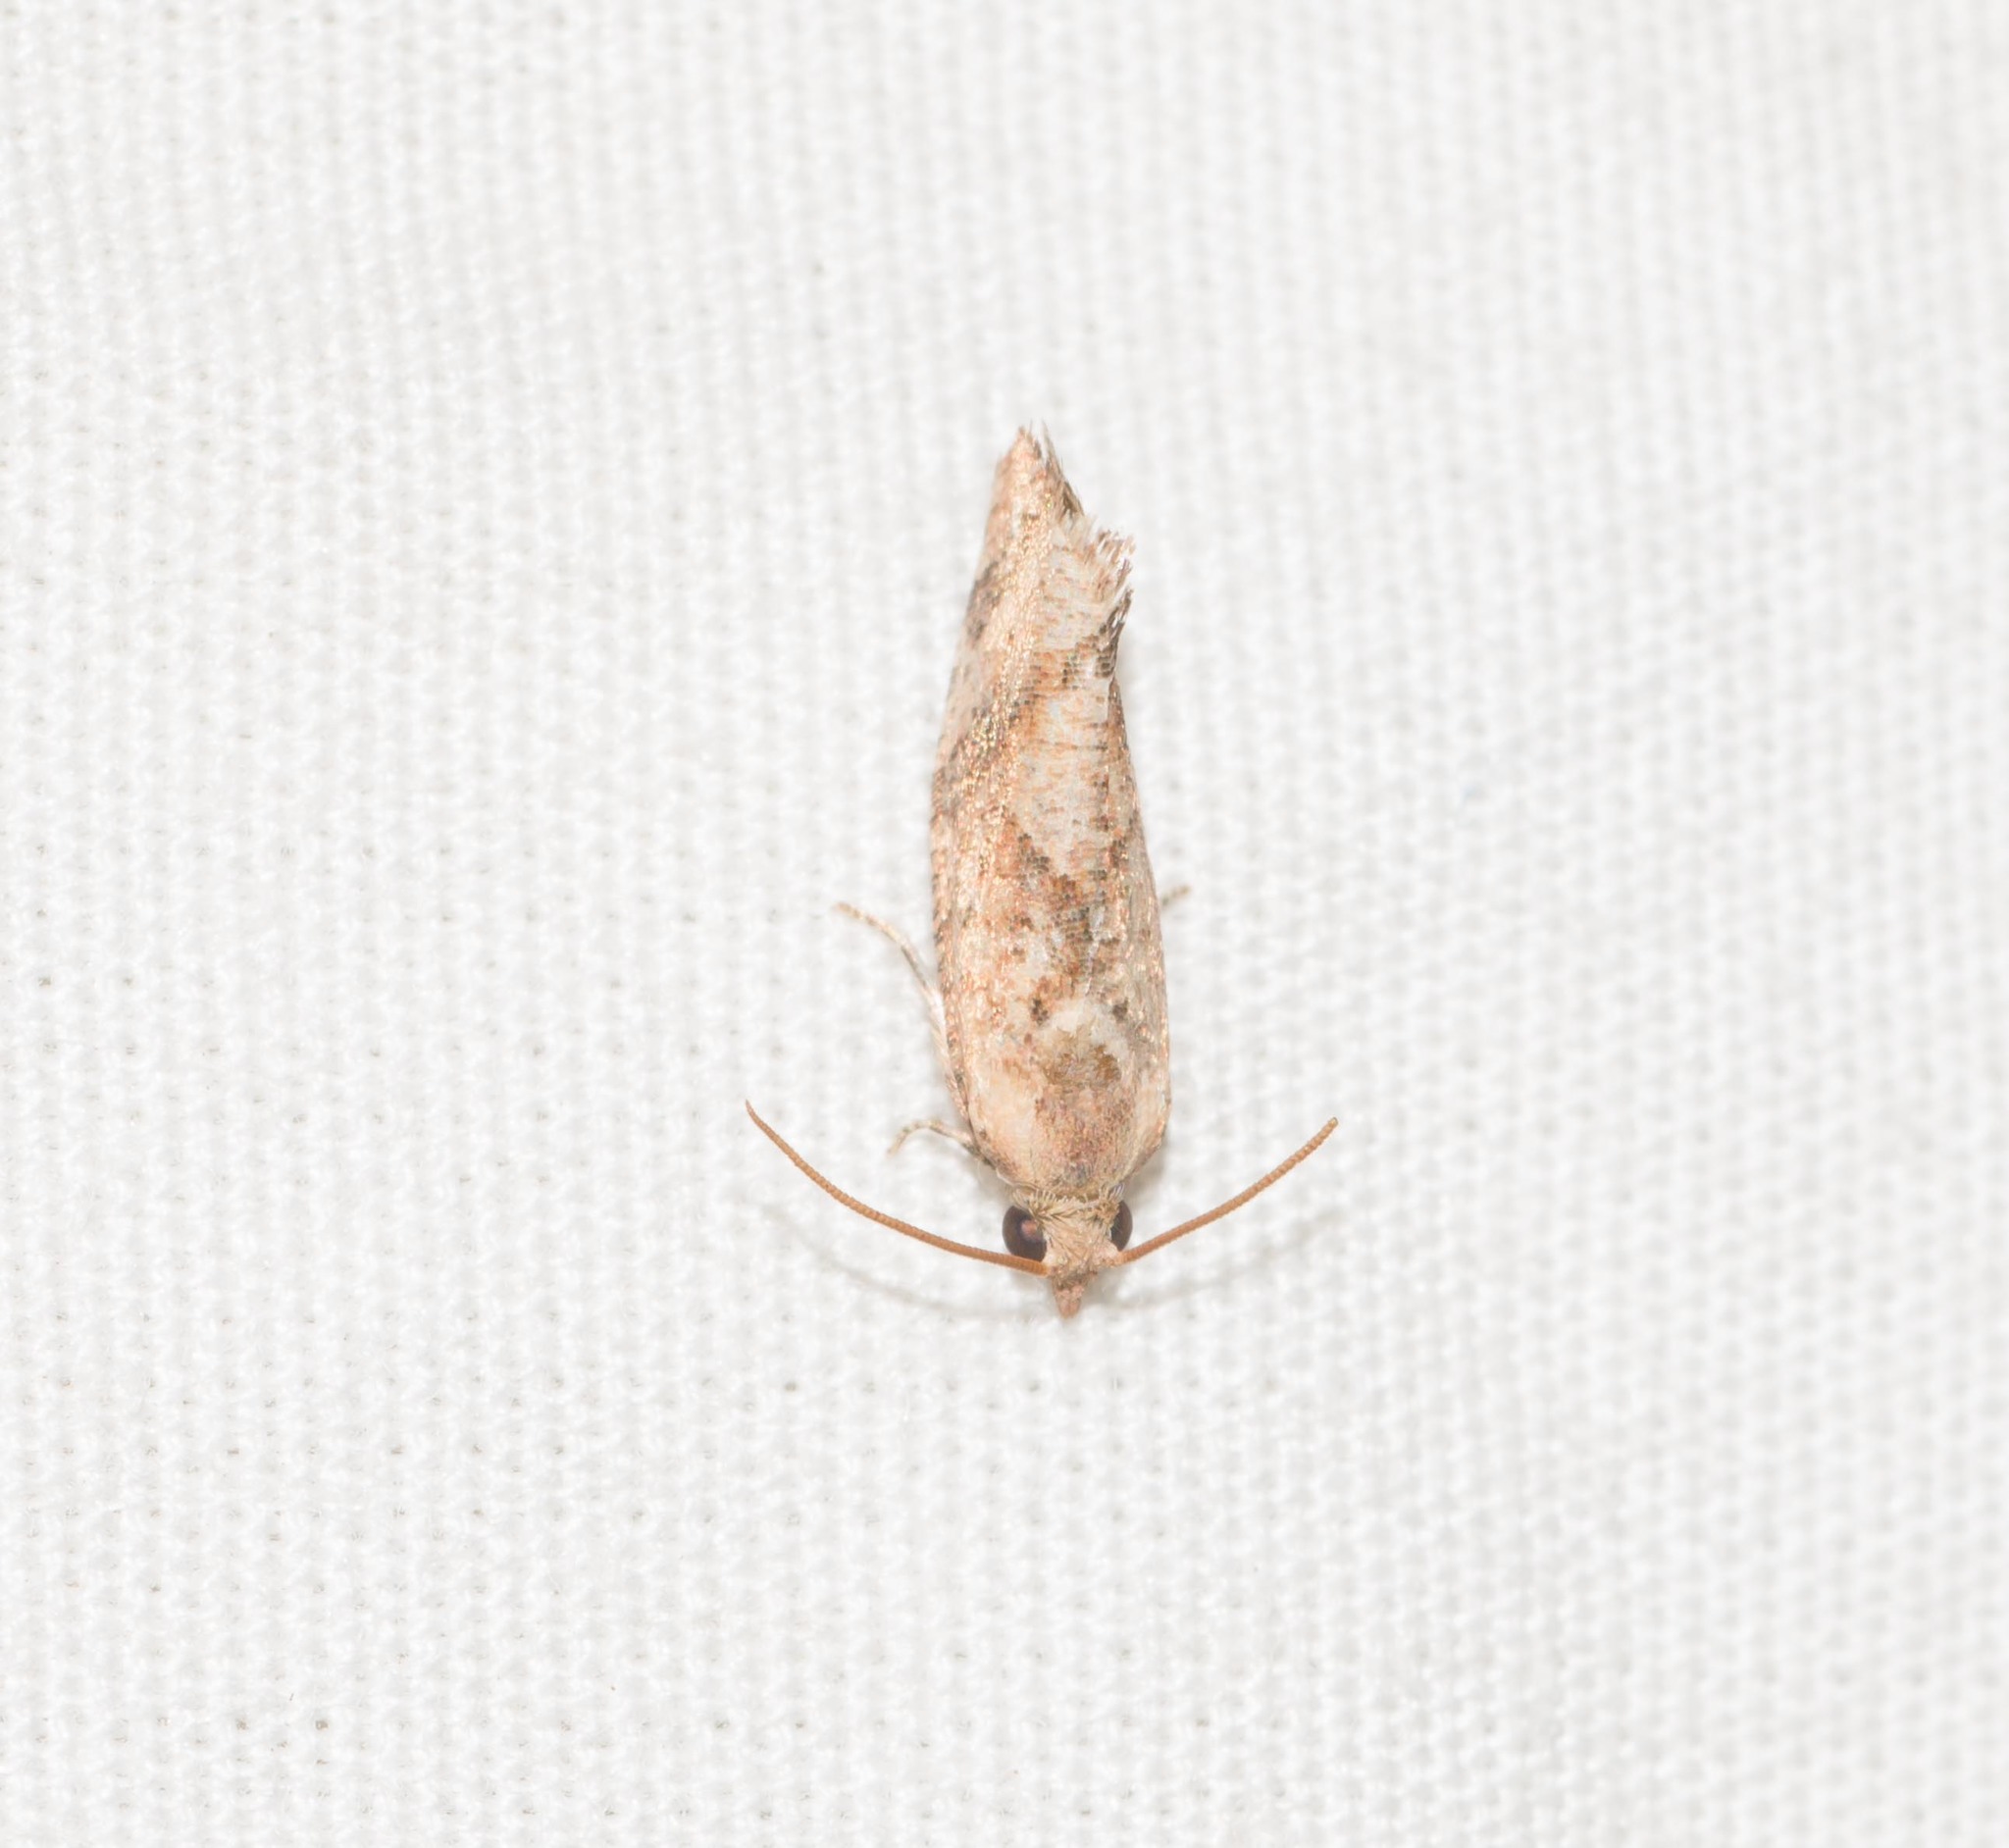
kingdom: Animalia
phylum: Arthropoda
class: Insecta
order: Lepidoptera
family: Tortricidae
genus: Cryptophlebia
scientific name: Cryptophlebia illepida
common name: Moth
